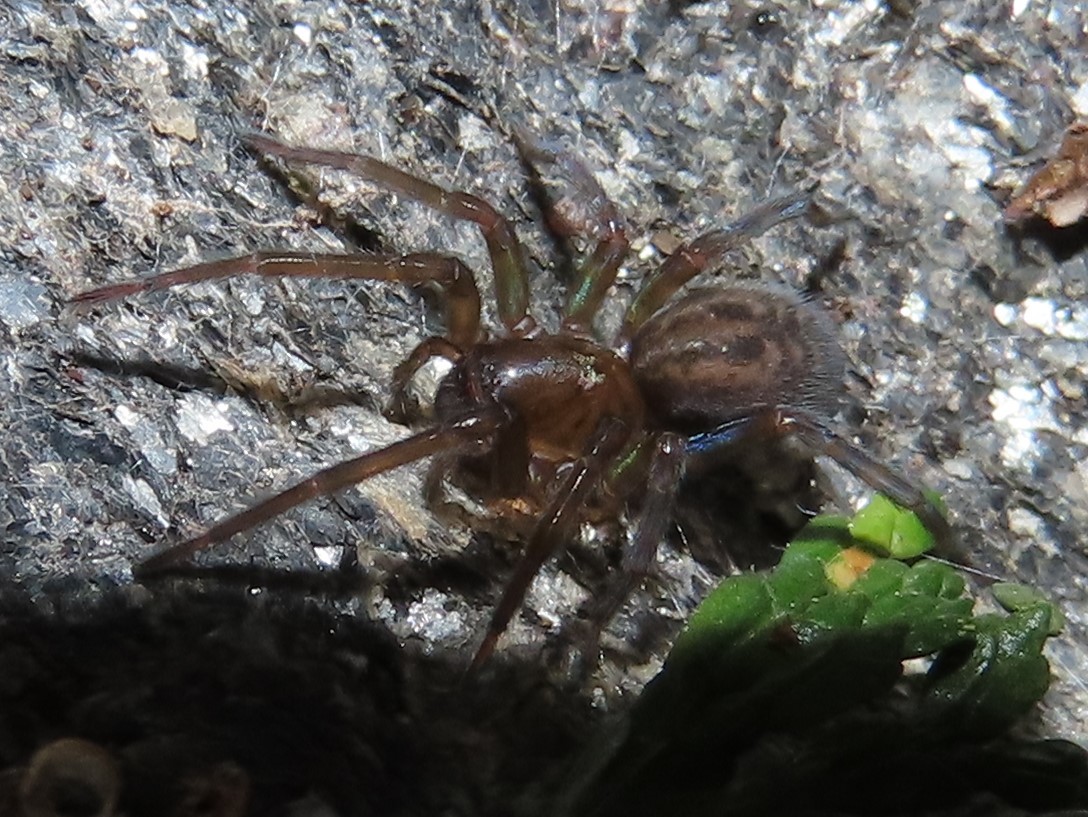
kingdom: Animalia
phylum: Arthropoda
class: Arachnida
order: Araneae
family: Amaurobiidae
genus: Amaurobius
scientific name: Amaurobius ferox
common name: Black laceweaver
